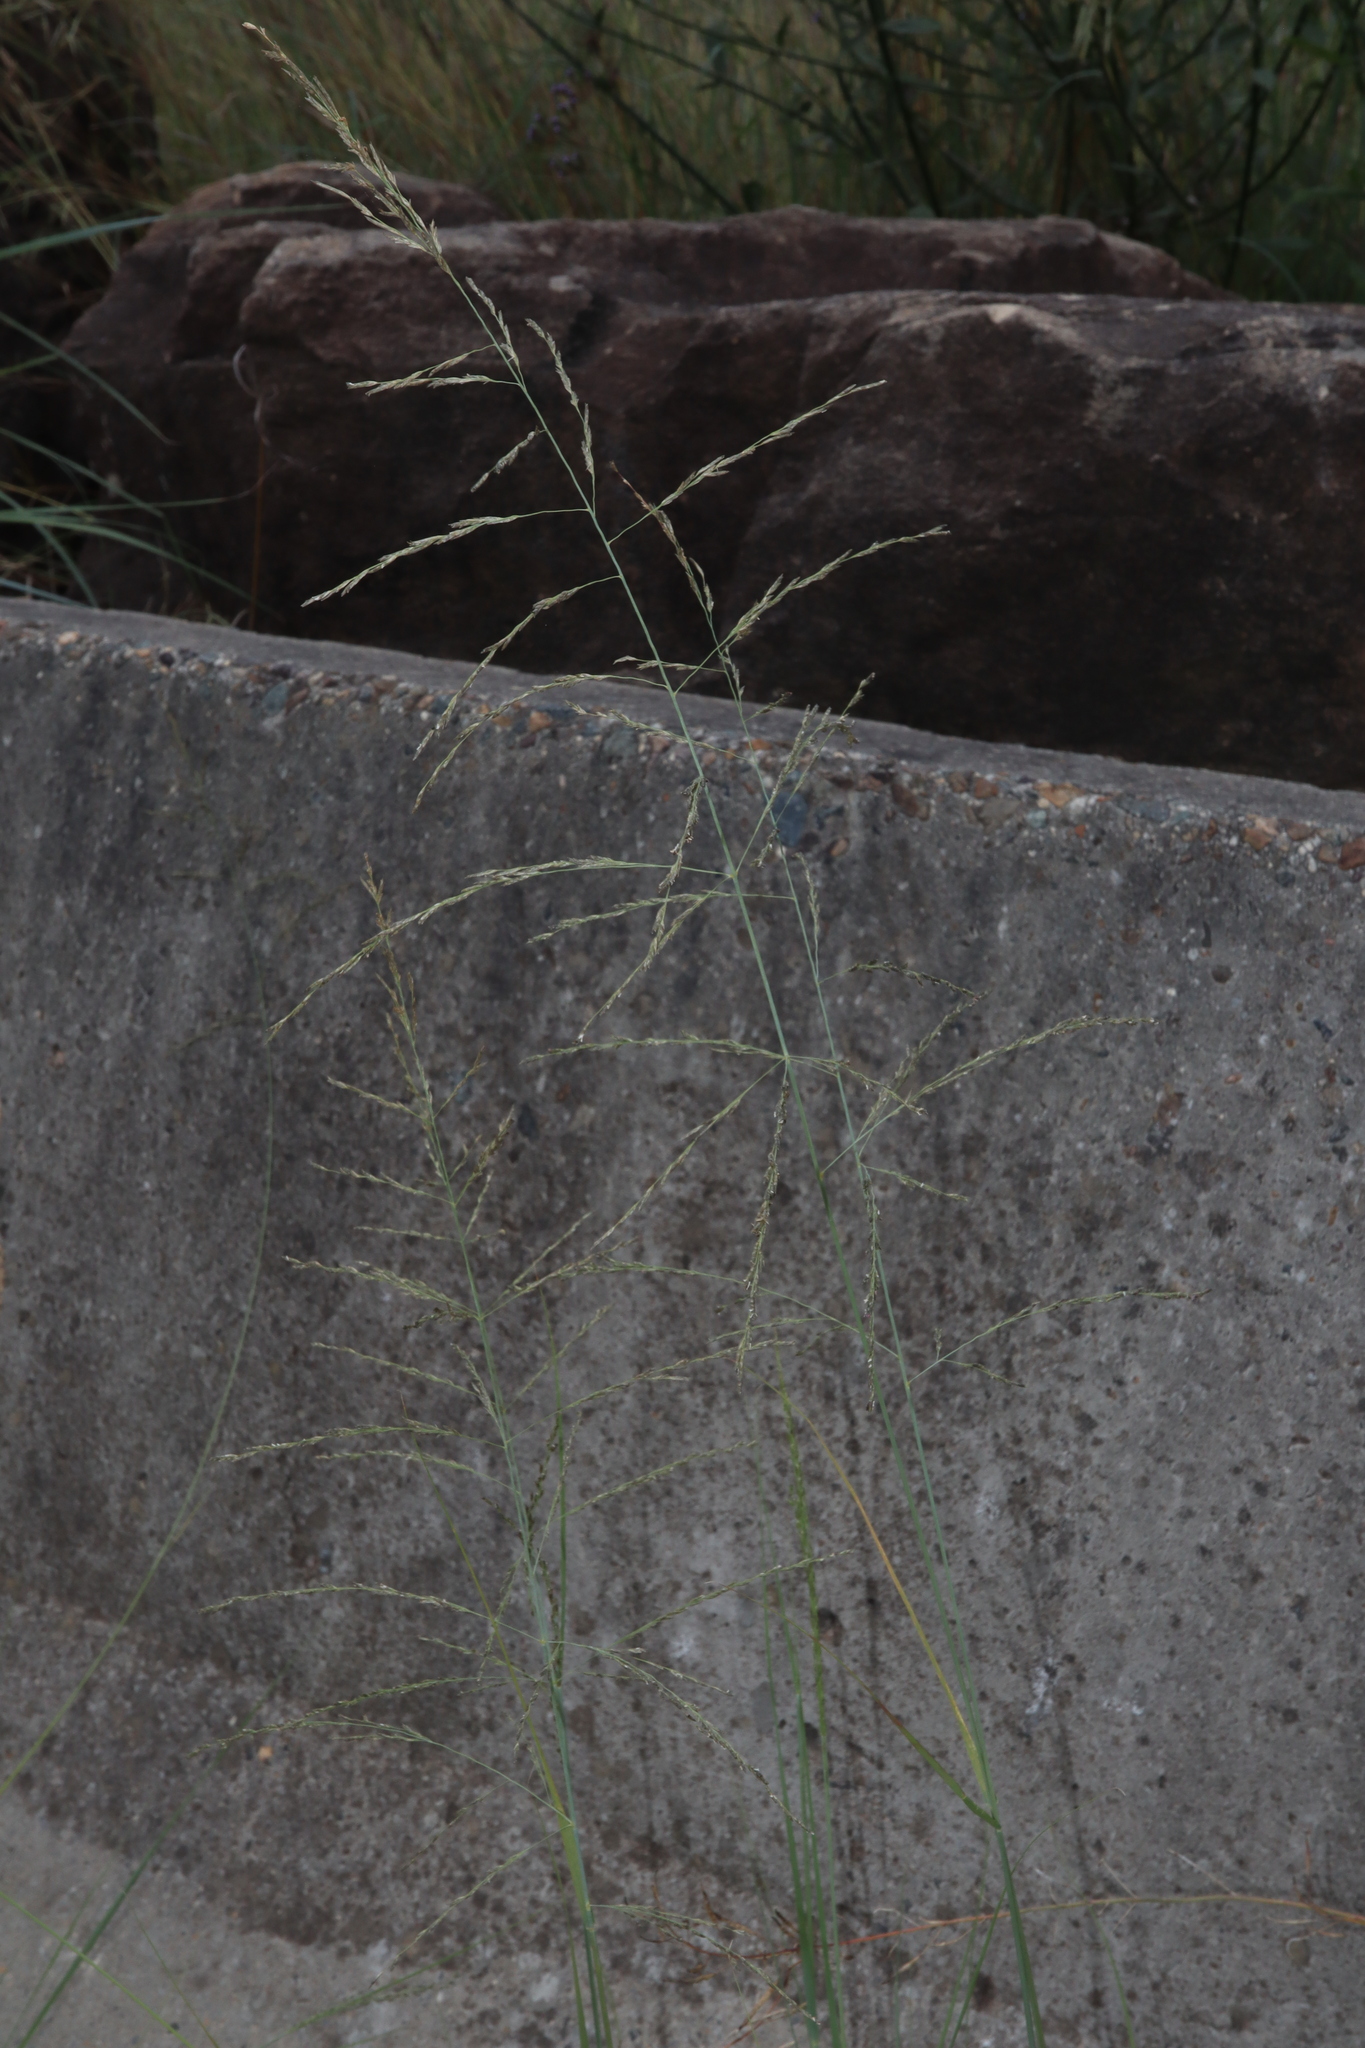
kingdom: Plantae
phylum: Tracheophyta
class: Liliopsida
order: Poales
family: Poaceae
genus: Eragrostis
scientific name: Eragrostis curvula
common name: African love-grass
